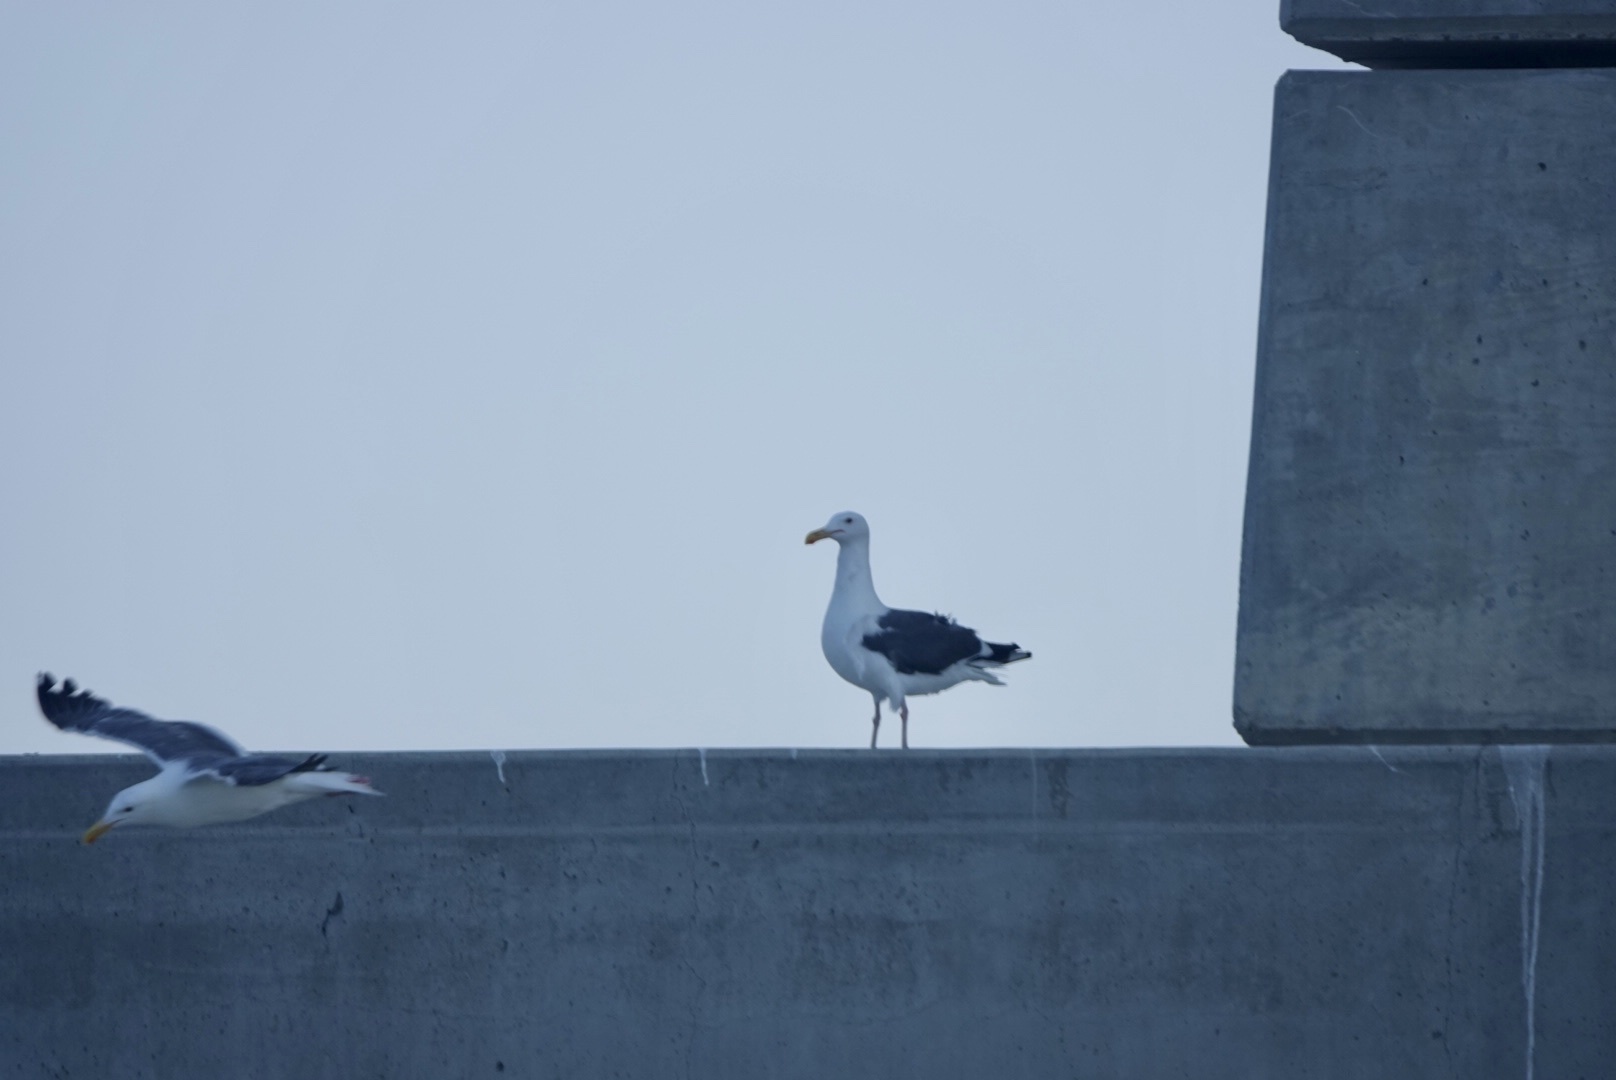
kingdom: Animalia
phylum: Chordata
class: Aves
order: Charadriiformes
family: Laridae
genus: Larus
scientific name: Larus occidentalis
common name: Western gull
